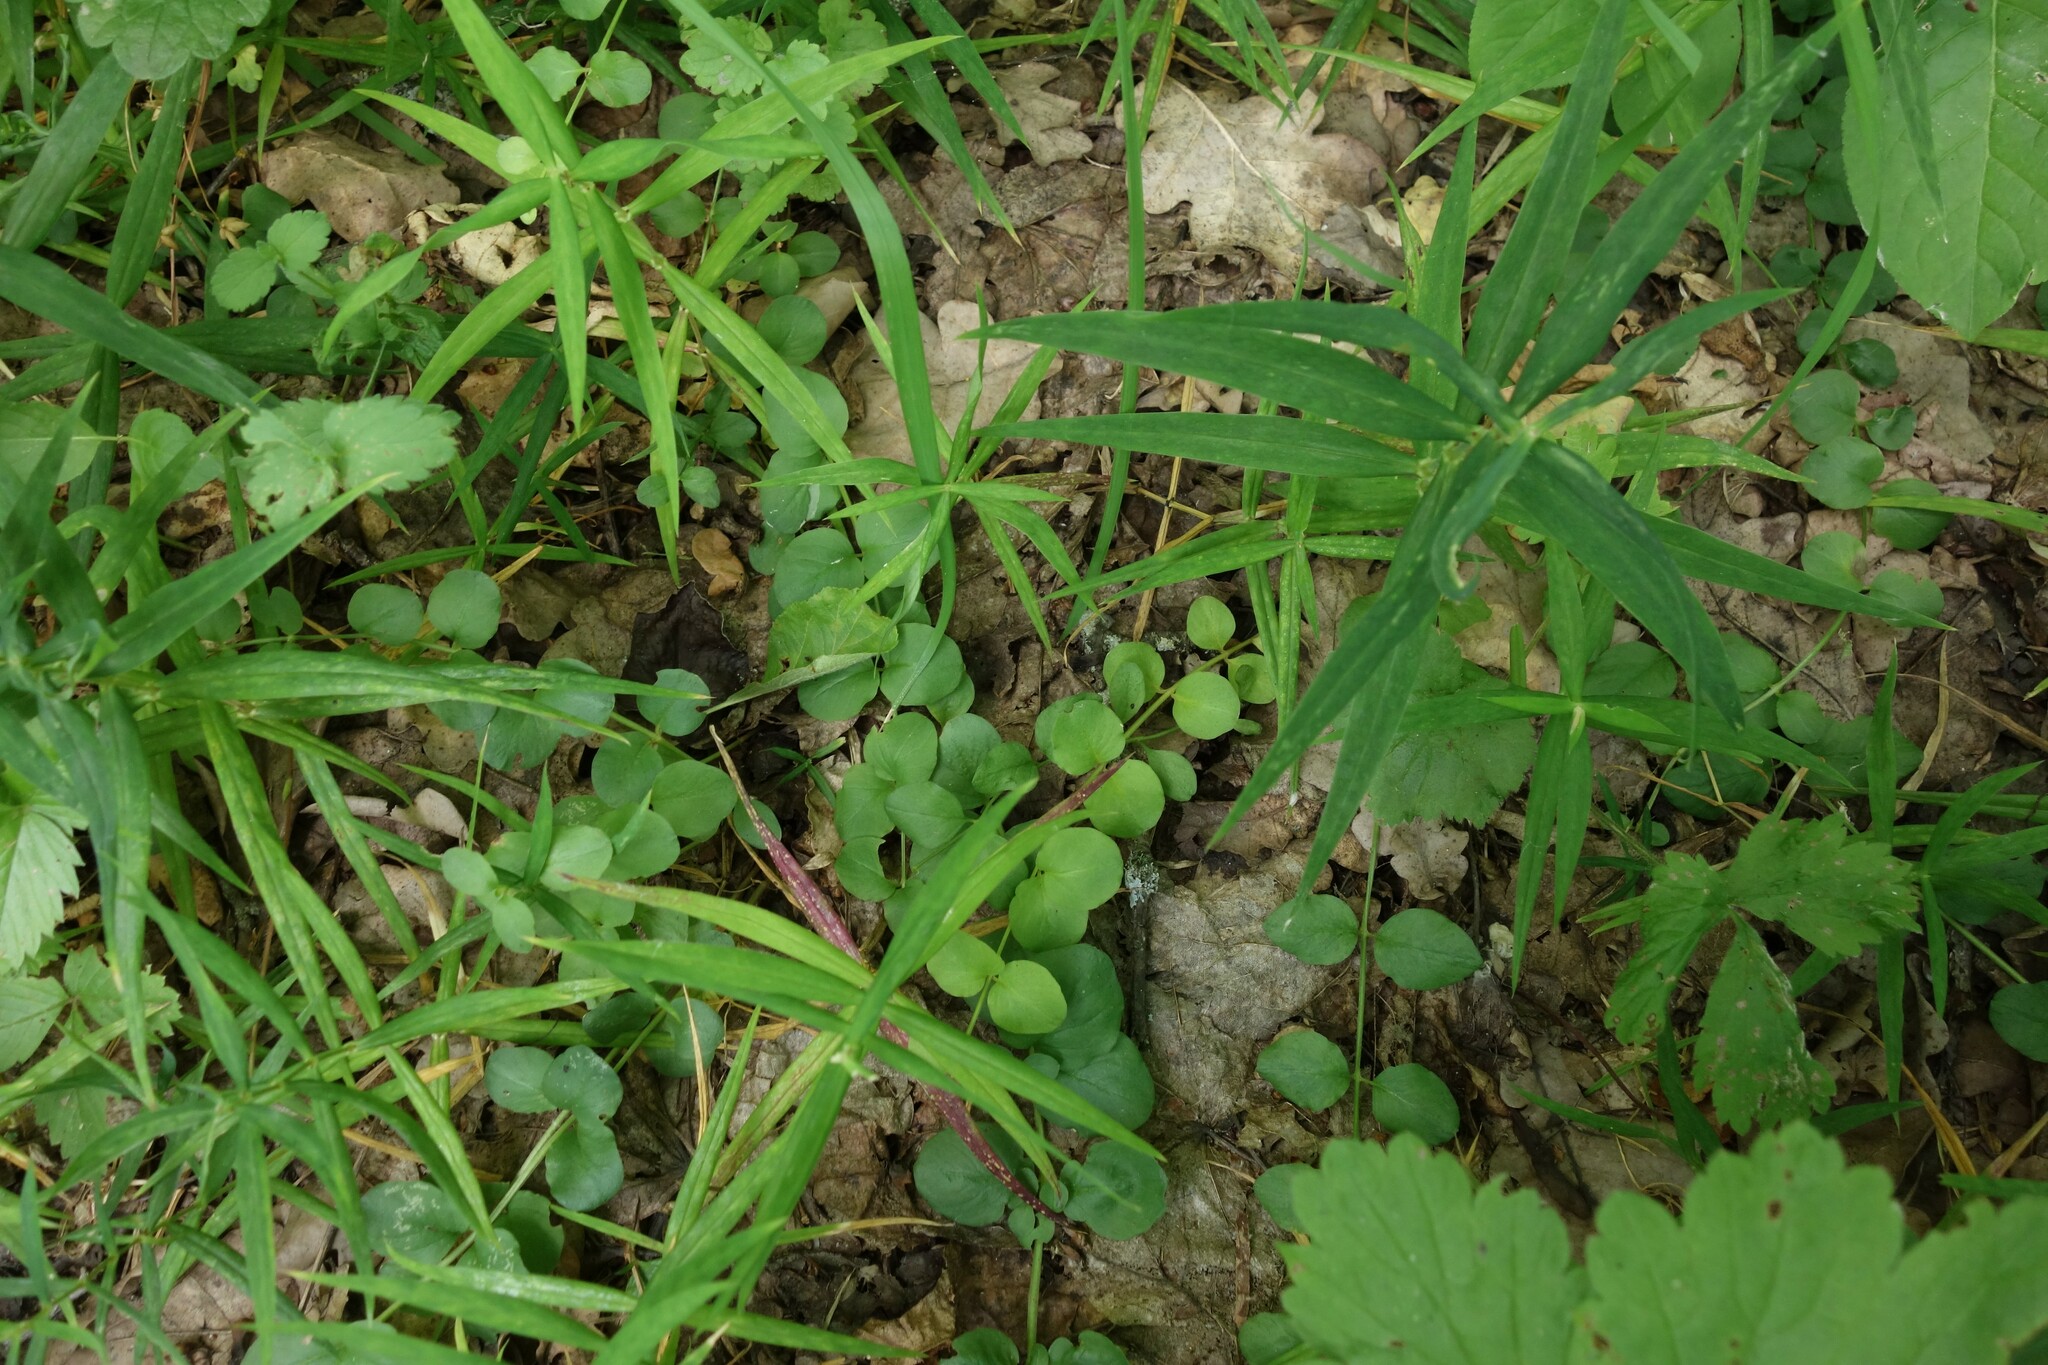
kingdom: Plantae
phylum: Tracheophyta
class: Magnoliopsida
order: Ericales
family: Primulaceae
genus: Lysimachia
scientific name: Lysimachia nummularia
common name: Moneywort
